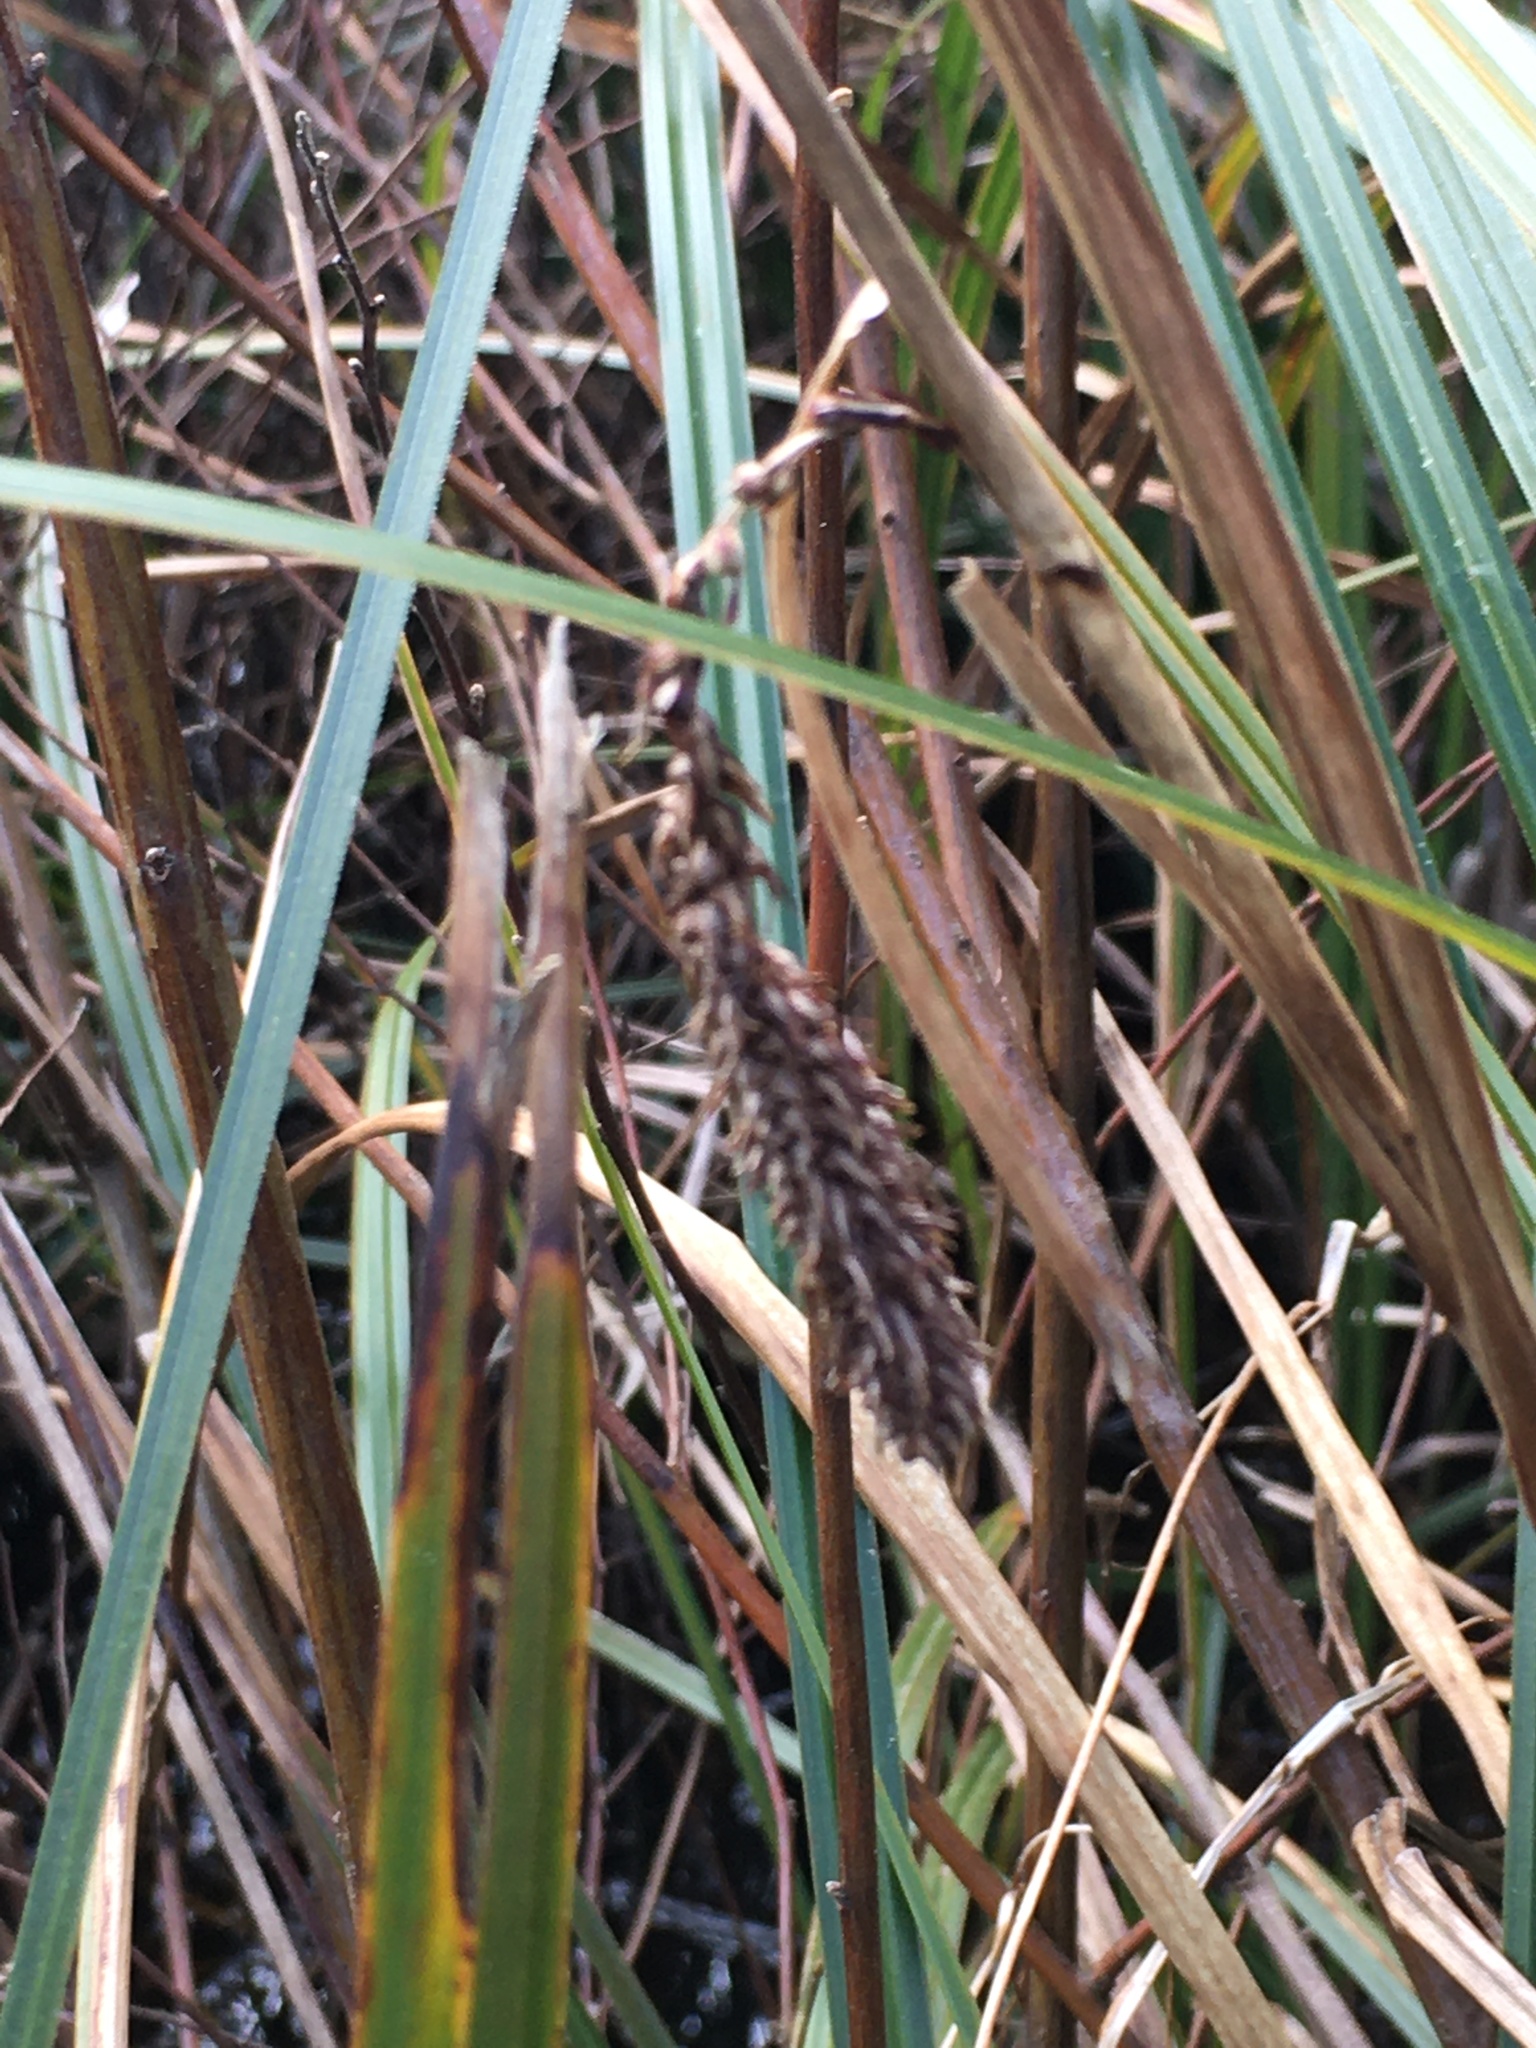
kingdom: Plantae
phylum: Tracheophyta
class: Liliopsida
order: Poales
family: Cyperaceae
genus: Carex
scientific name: Carex obnupta
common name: Slough sedge
